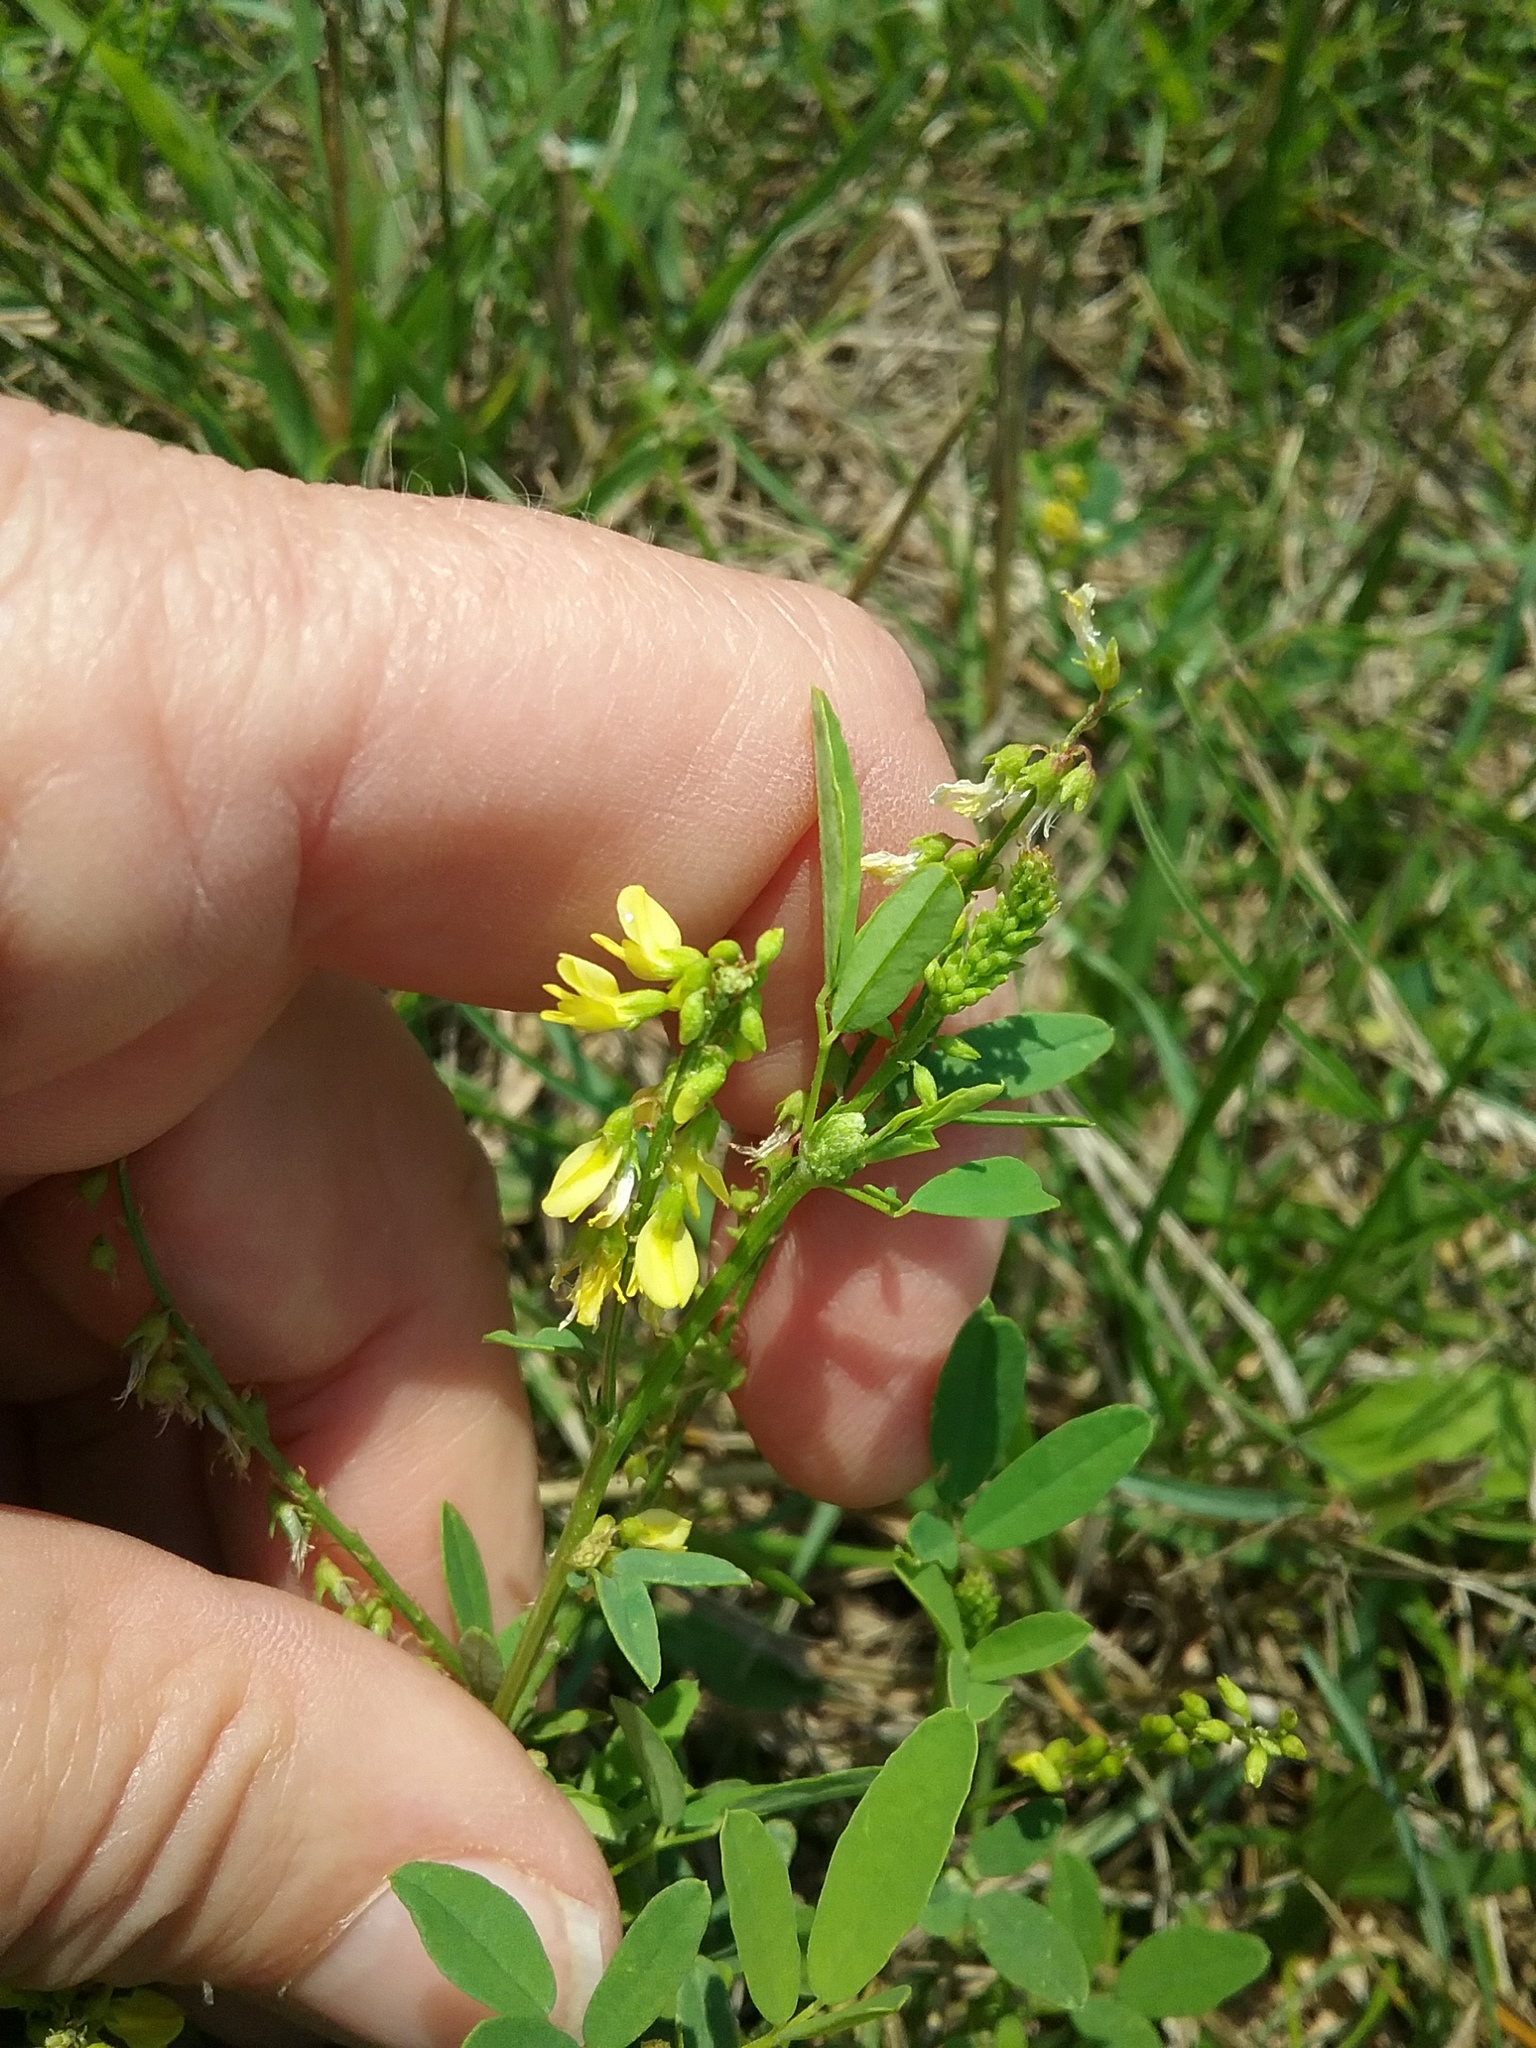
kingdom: Plantae
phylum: Tracheophyta
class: Magnoliopsida
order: Fabales
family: Fabaceae
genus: Melilotus
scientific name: Melilotus officinalis
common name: Sweetclover
